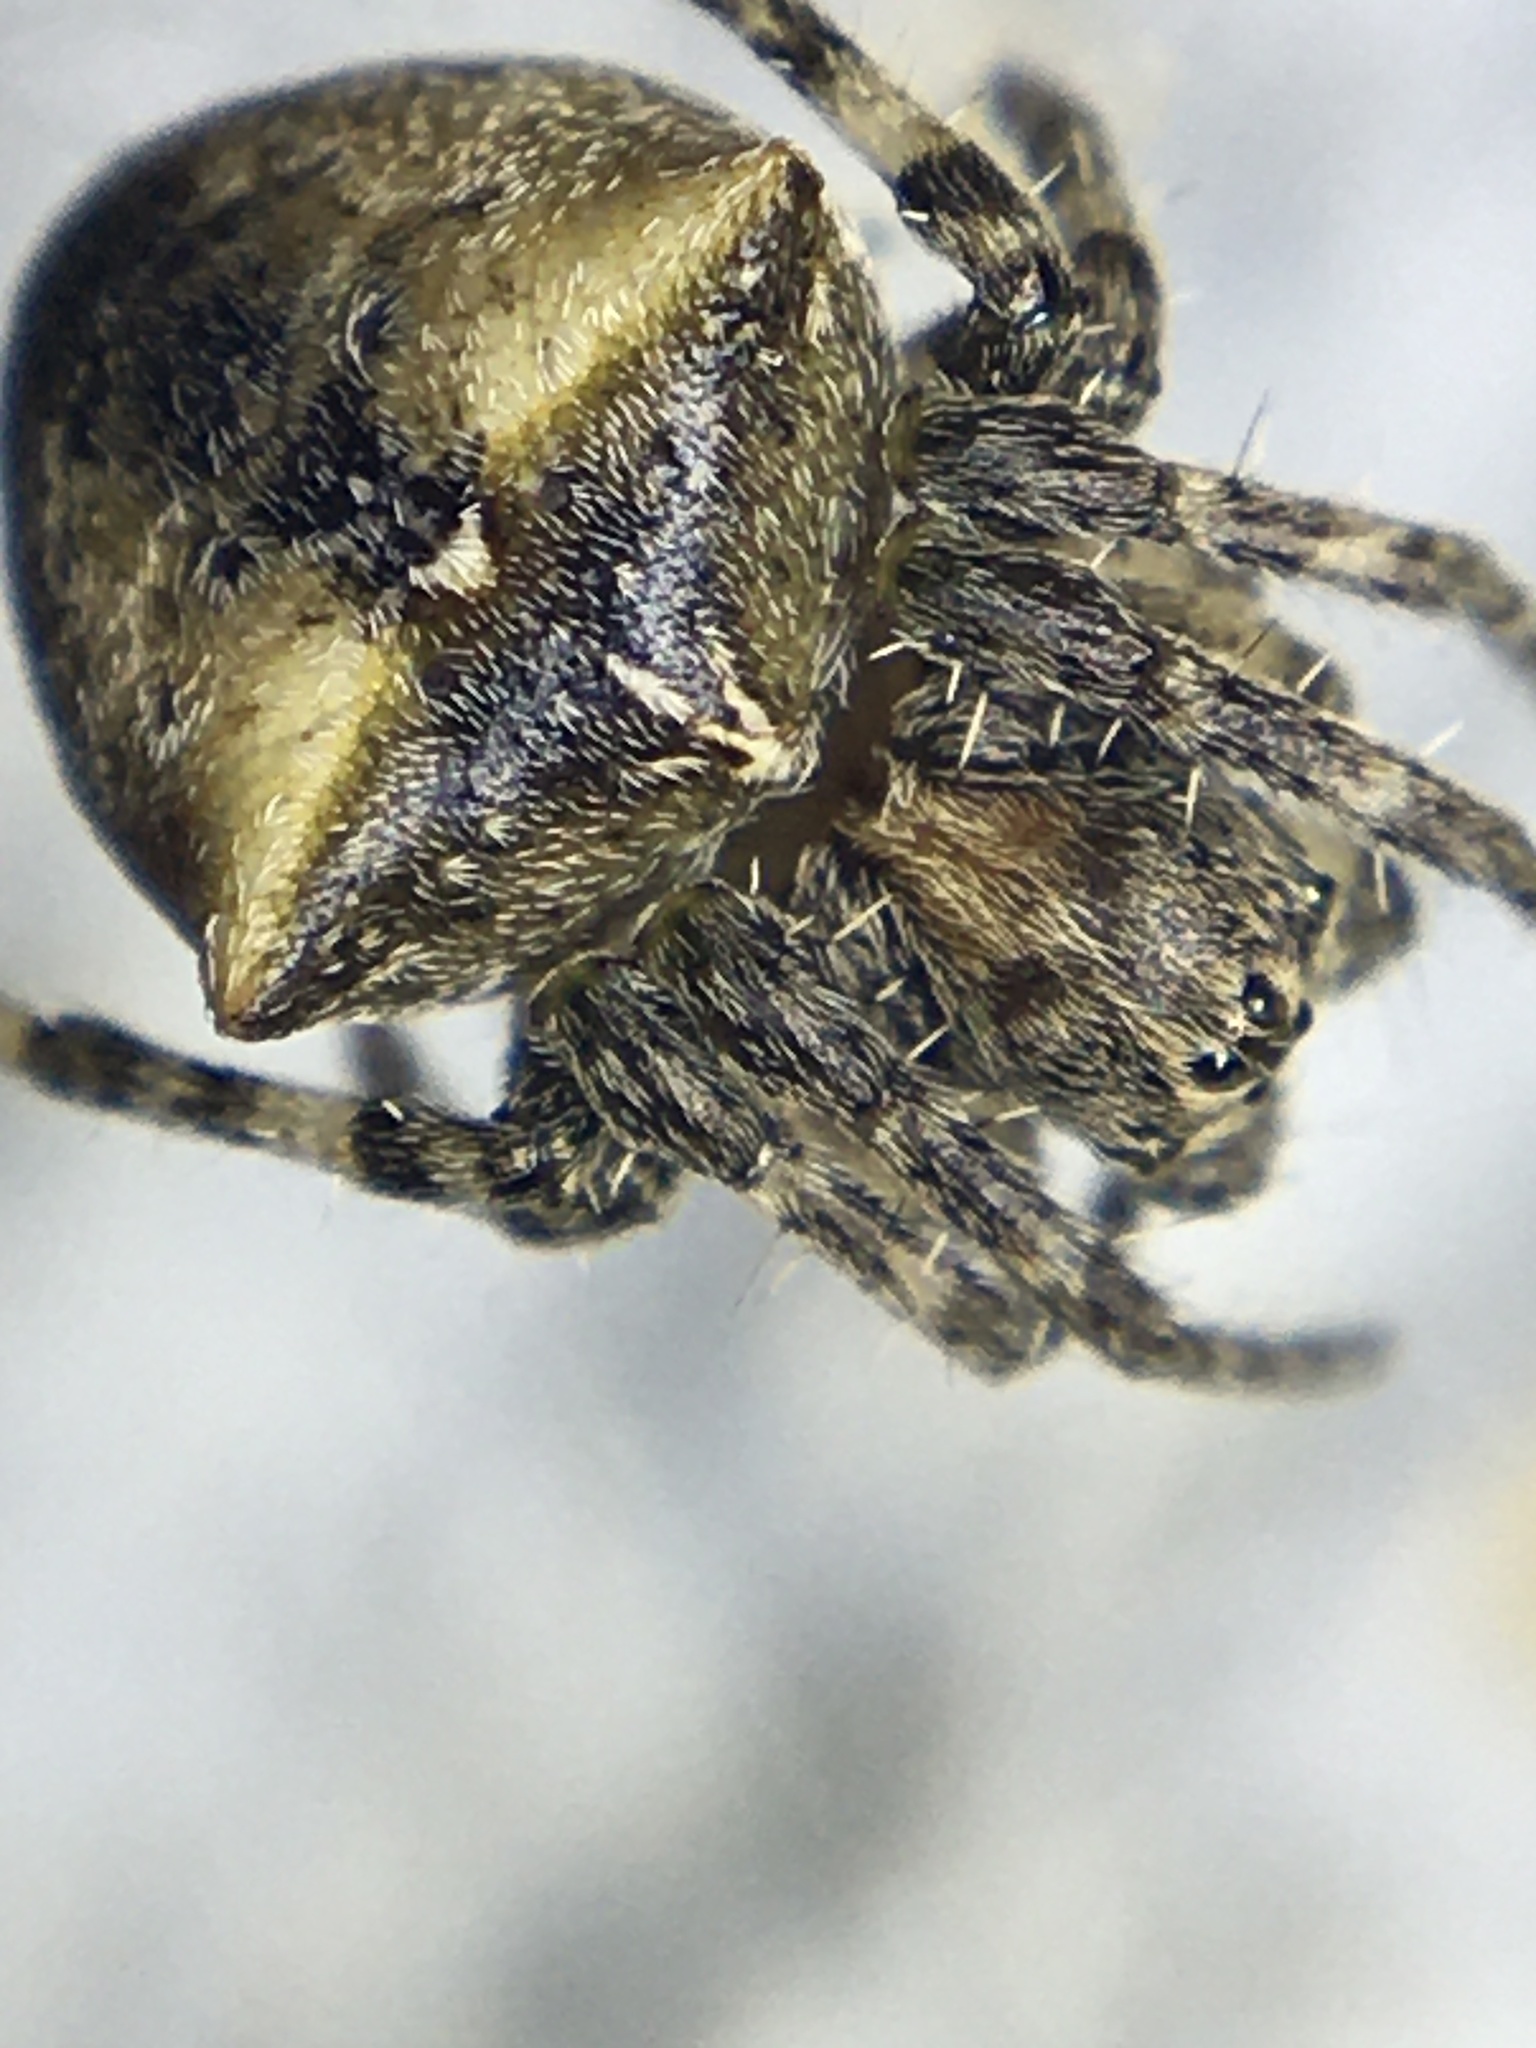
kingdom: Animalia
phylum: Arthropoda
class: Arachnida
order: Araneae
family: Araneidae
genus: Gibbaranea
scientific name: Gibbaranea bituberculata
